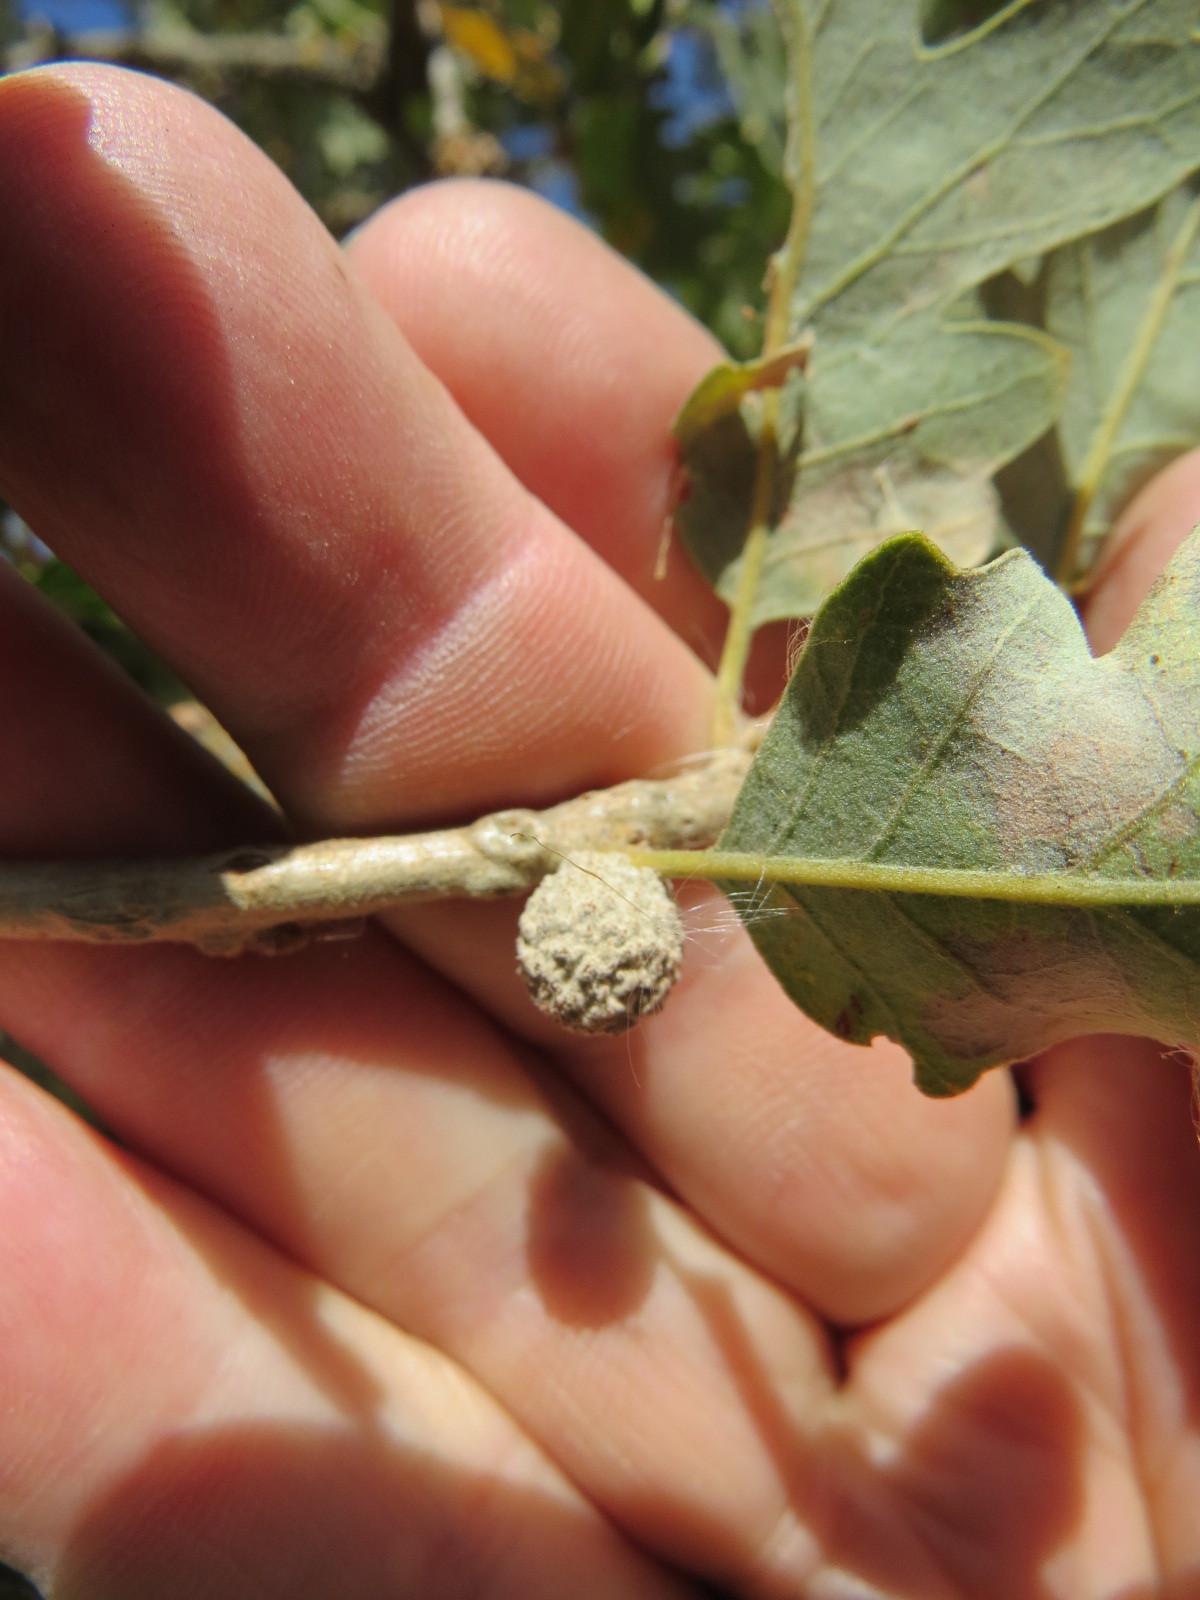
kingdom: Animalia
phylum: Arthropoda
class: Insecta
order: Hymenoptera
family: Cynipidae
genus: Cynips
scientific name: Cynips conspicua
